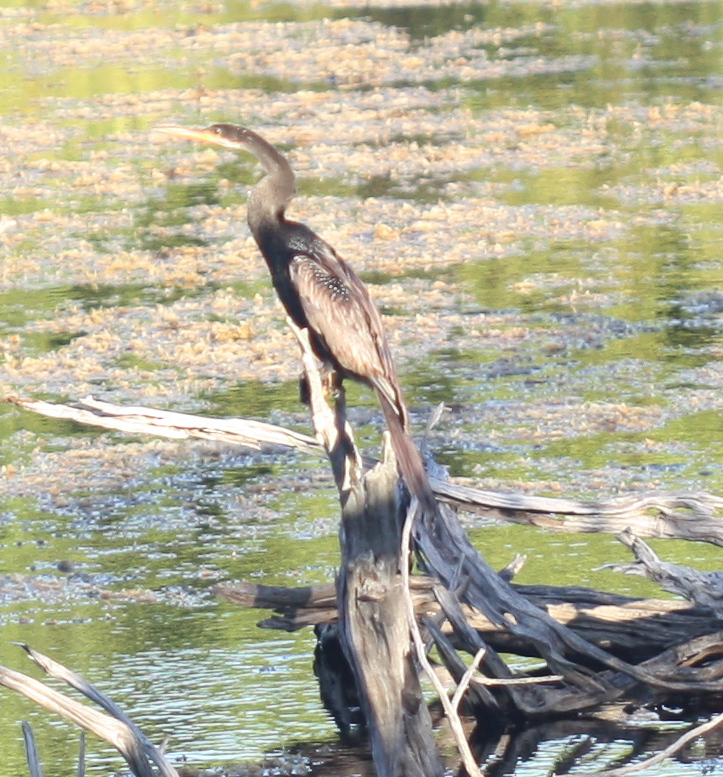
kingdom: Animalia
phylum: Chordata
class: Aves
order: Suliformes
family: Anhingidae
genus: Anhinga
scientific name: Anhinga anhinga
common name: Anhinga
